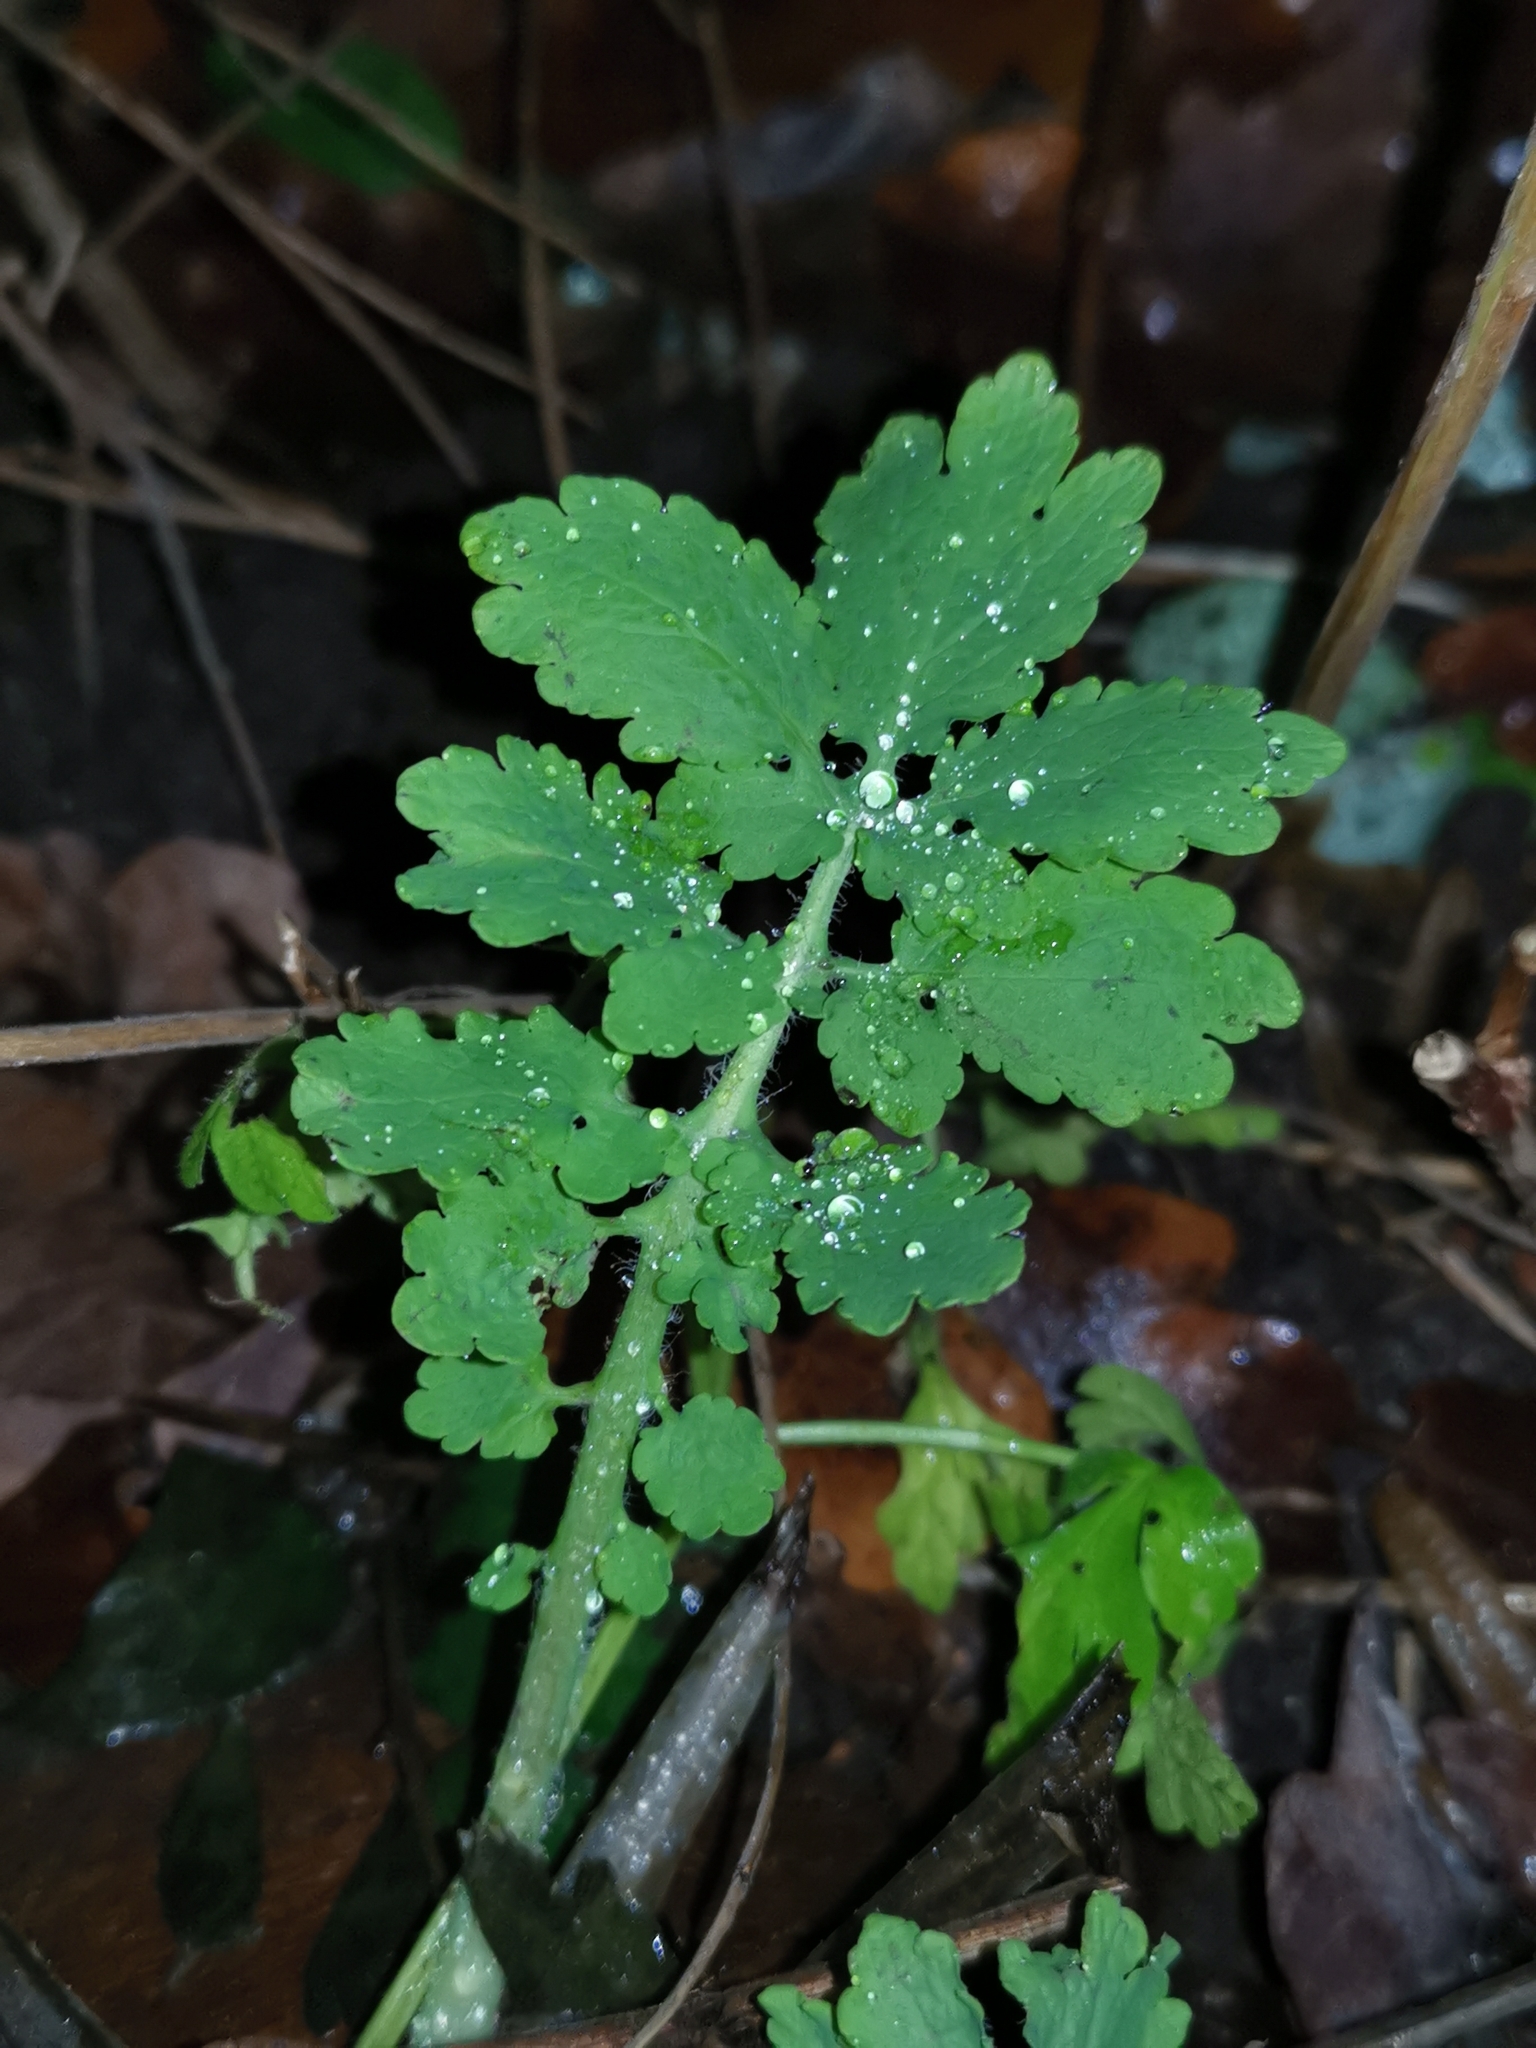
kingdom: Plantae
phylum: Tracheophyta
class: Magnoliopsida
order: Ranunculales
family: Papaveraceae
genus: Chelidonium
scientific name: Chelidonium majus
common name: Greater celandine
